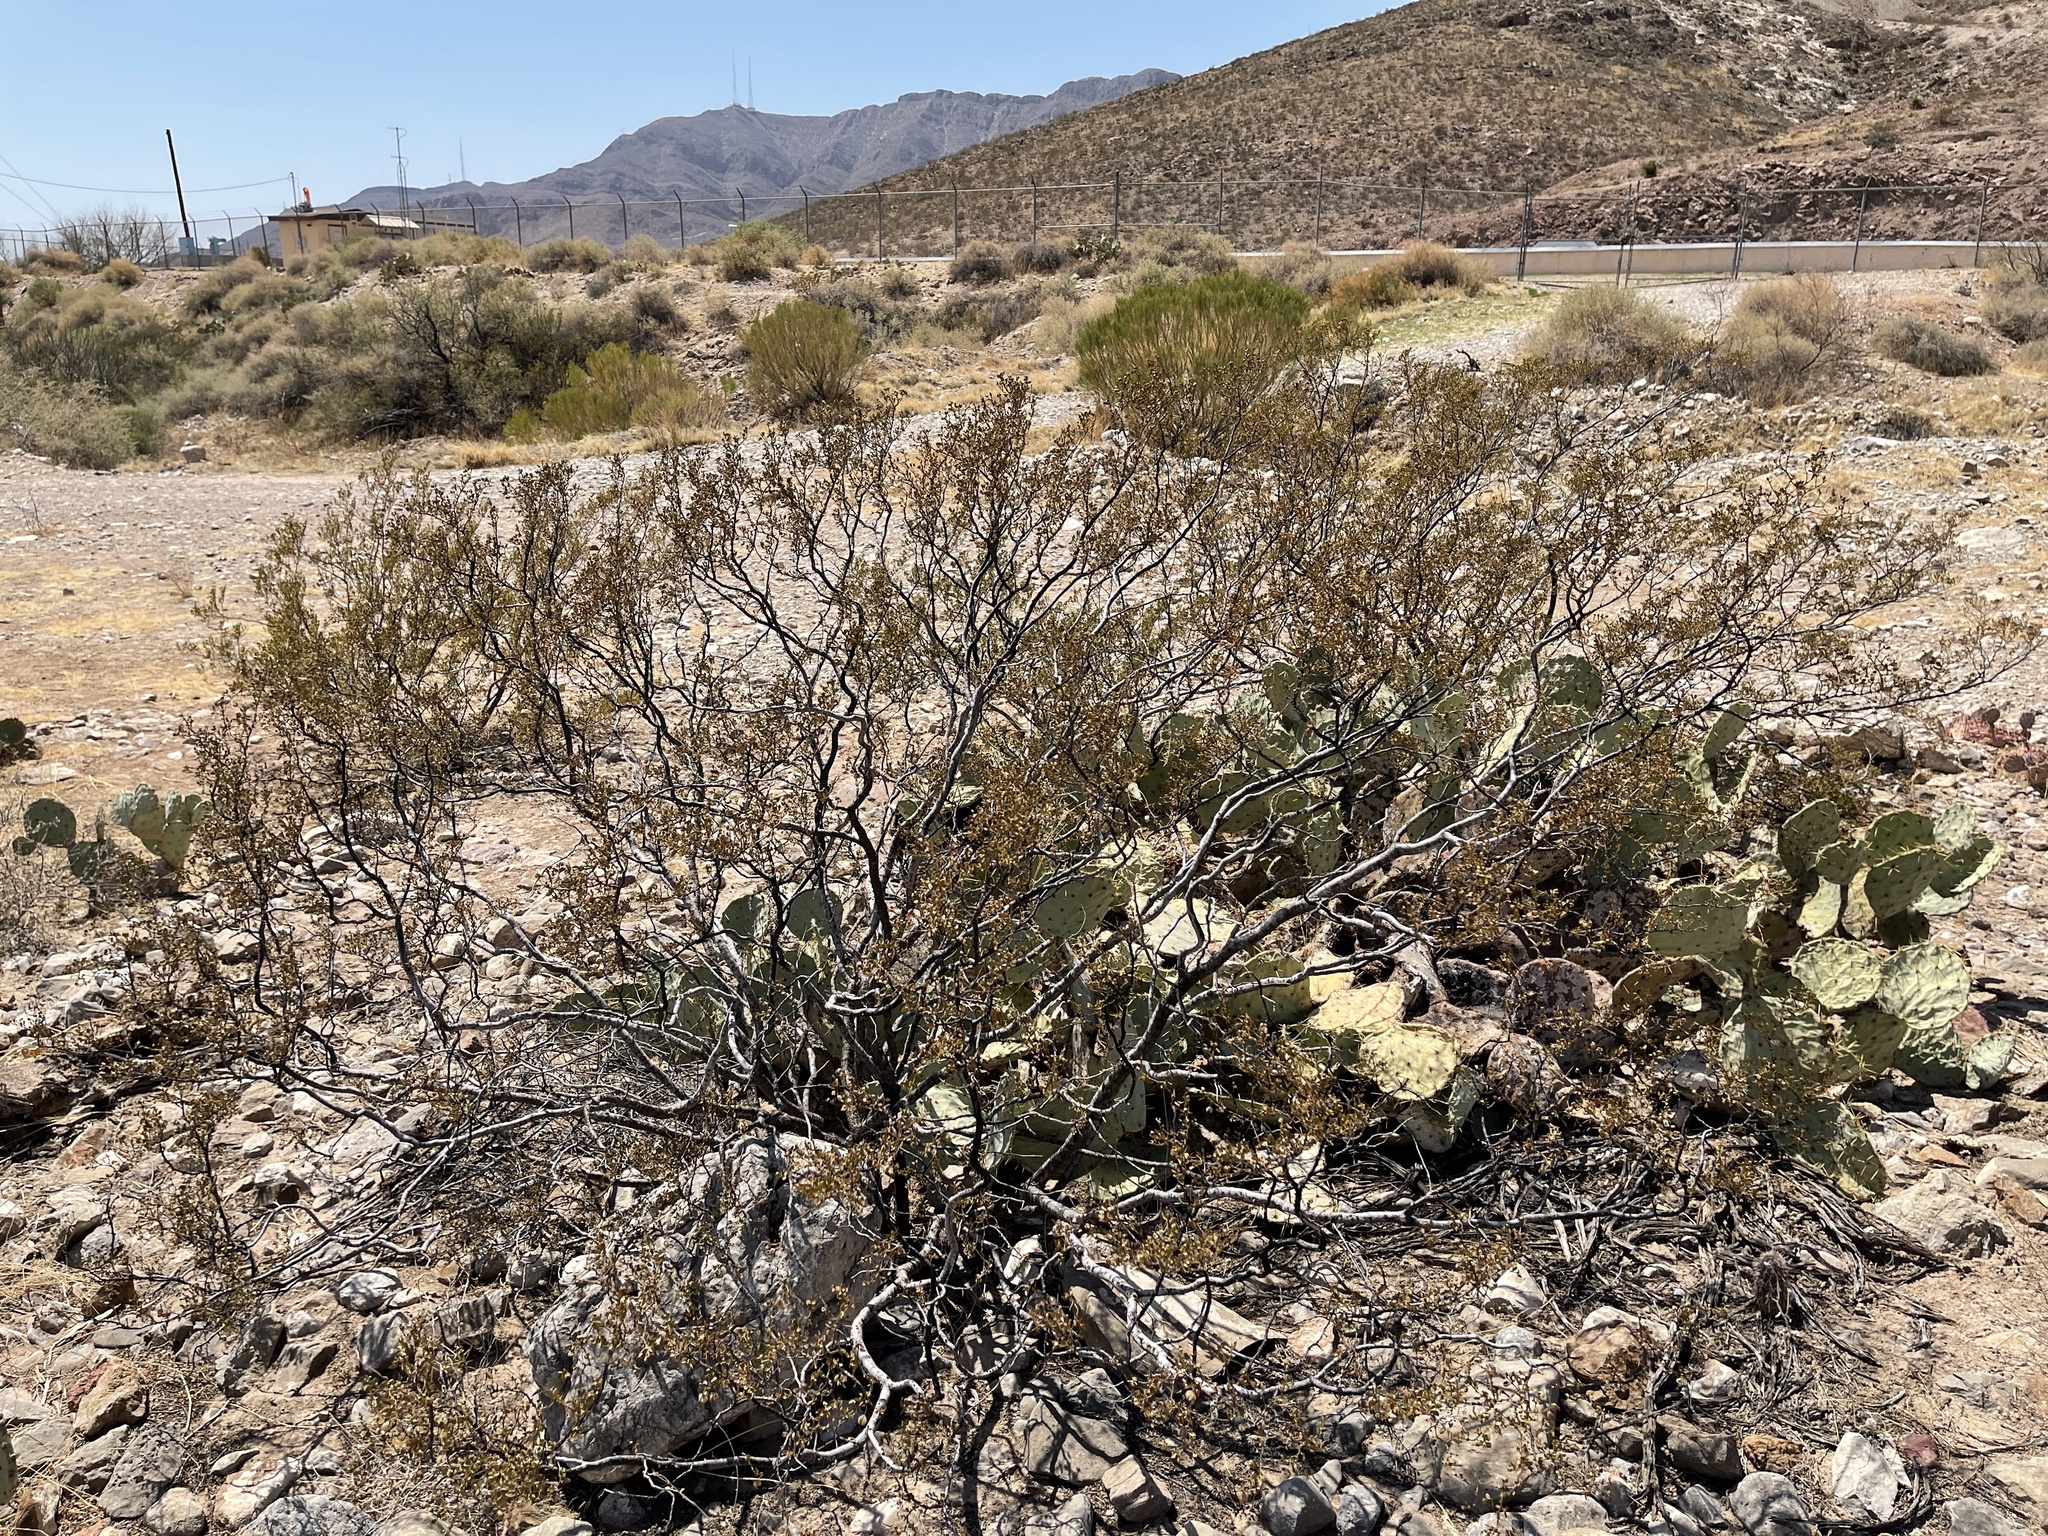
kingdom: Plantae
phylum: Tracheophyta
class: Magnoliopsida
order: Zygophyllales
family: Zygophyllaceae
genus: Larrea
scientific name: Larrea tridentata
